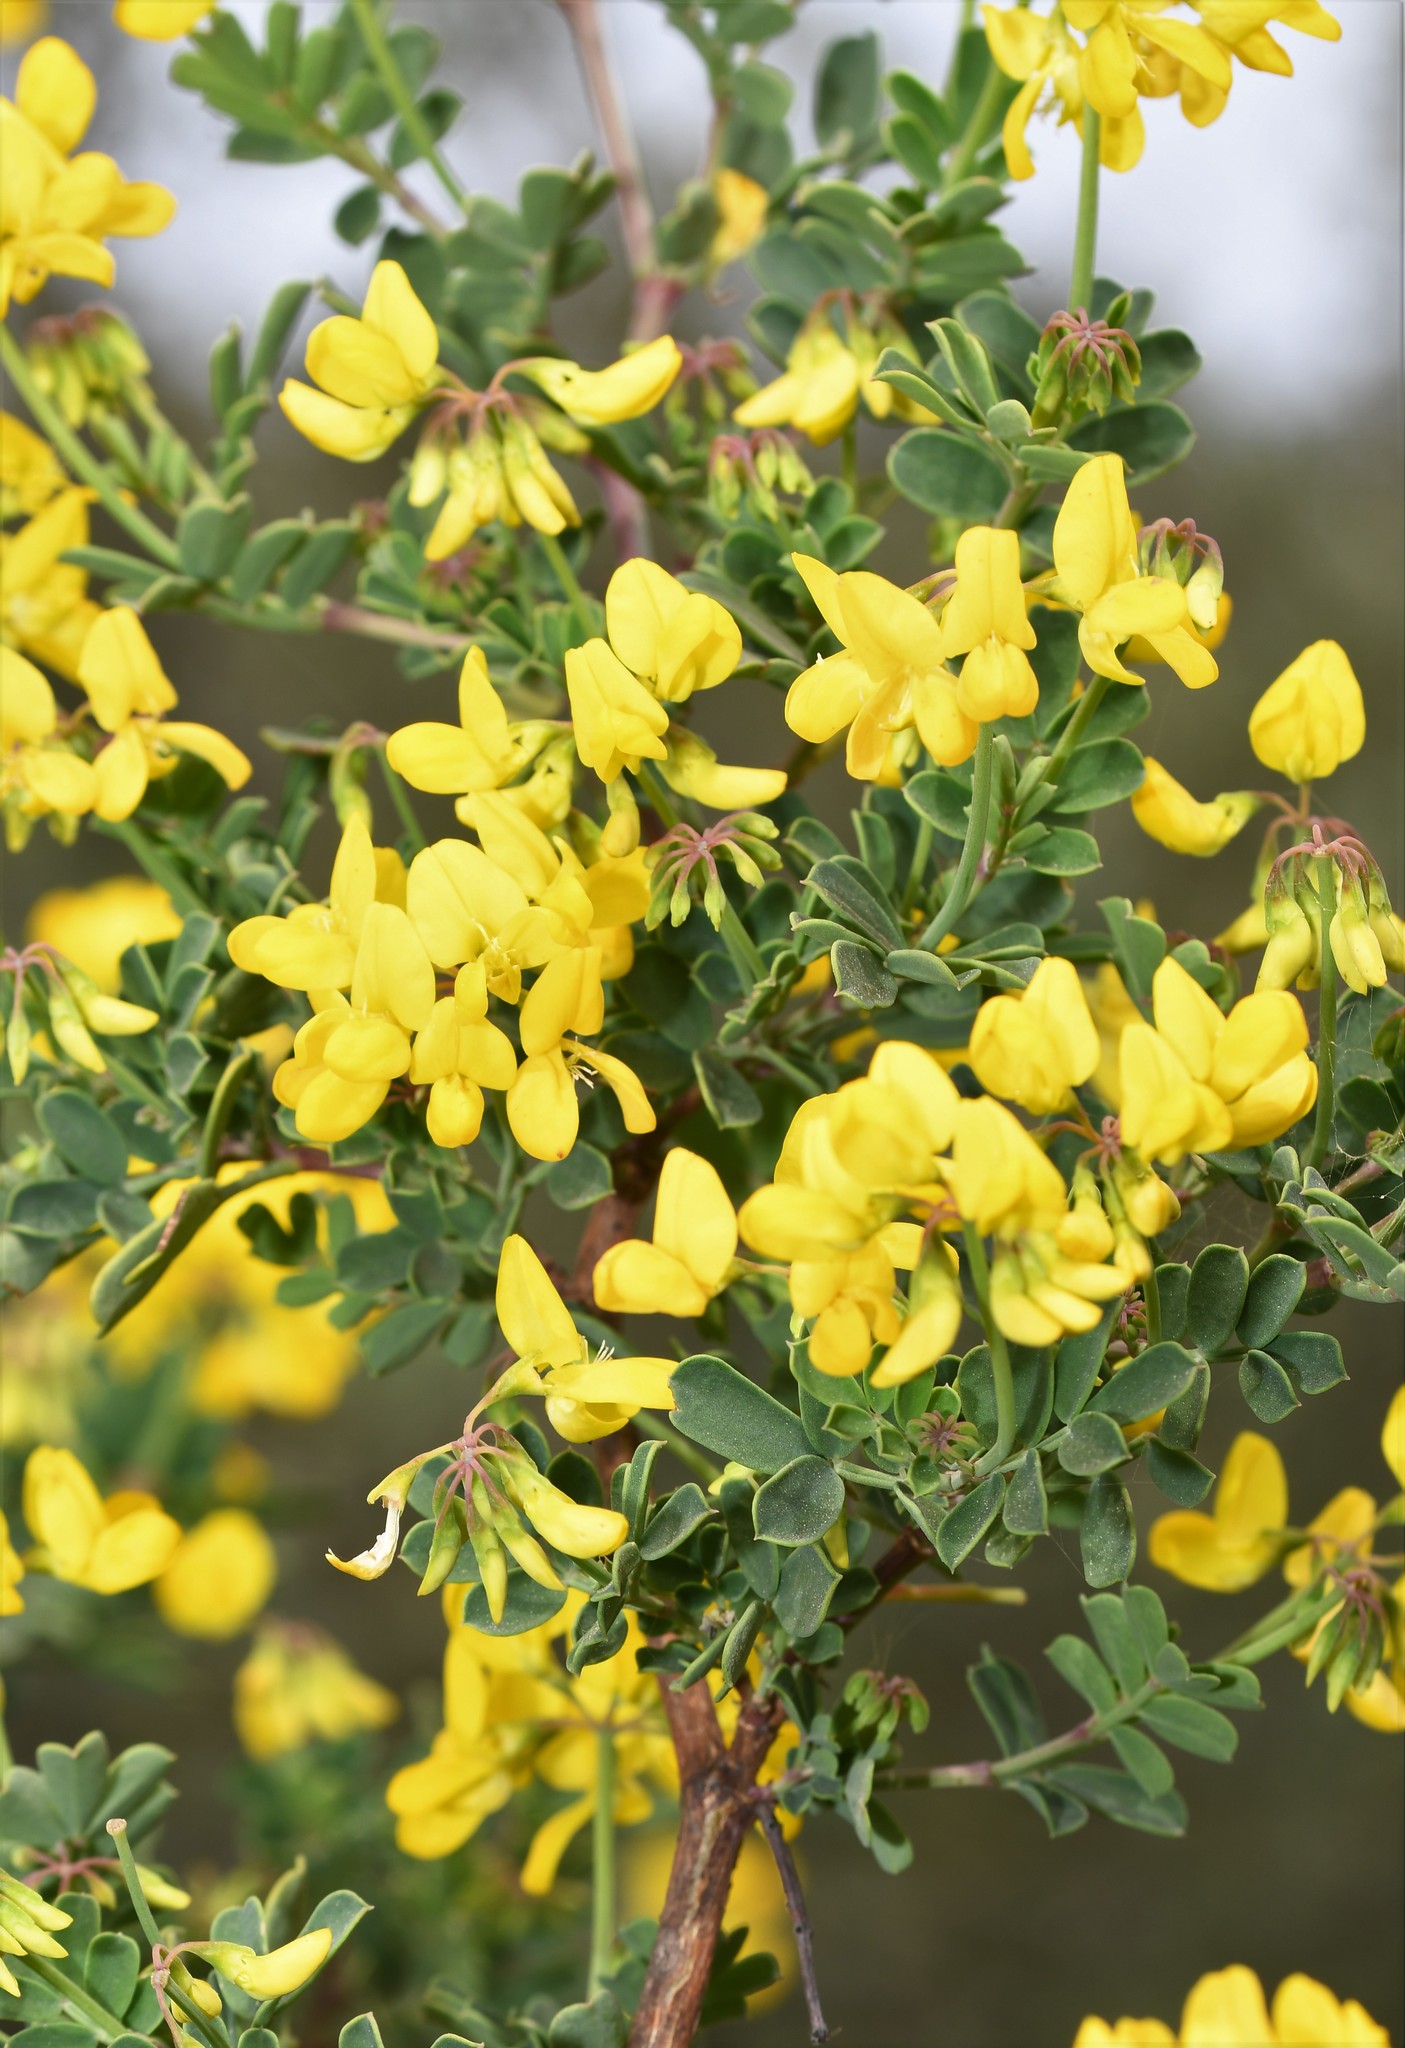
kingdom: Plantae
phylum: Tracheophyta
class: Magnoliopsida
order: Fabales
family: Fabaceae
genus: Coronilla
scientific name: Coronilla valentina
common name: Shrubby scorpion-vetch
